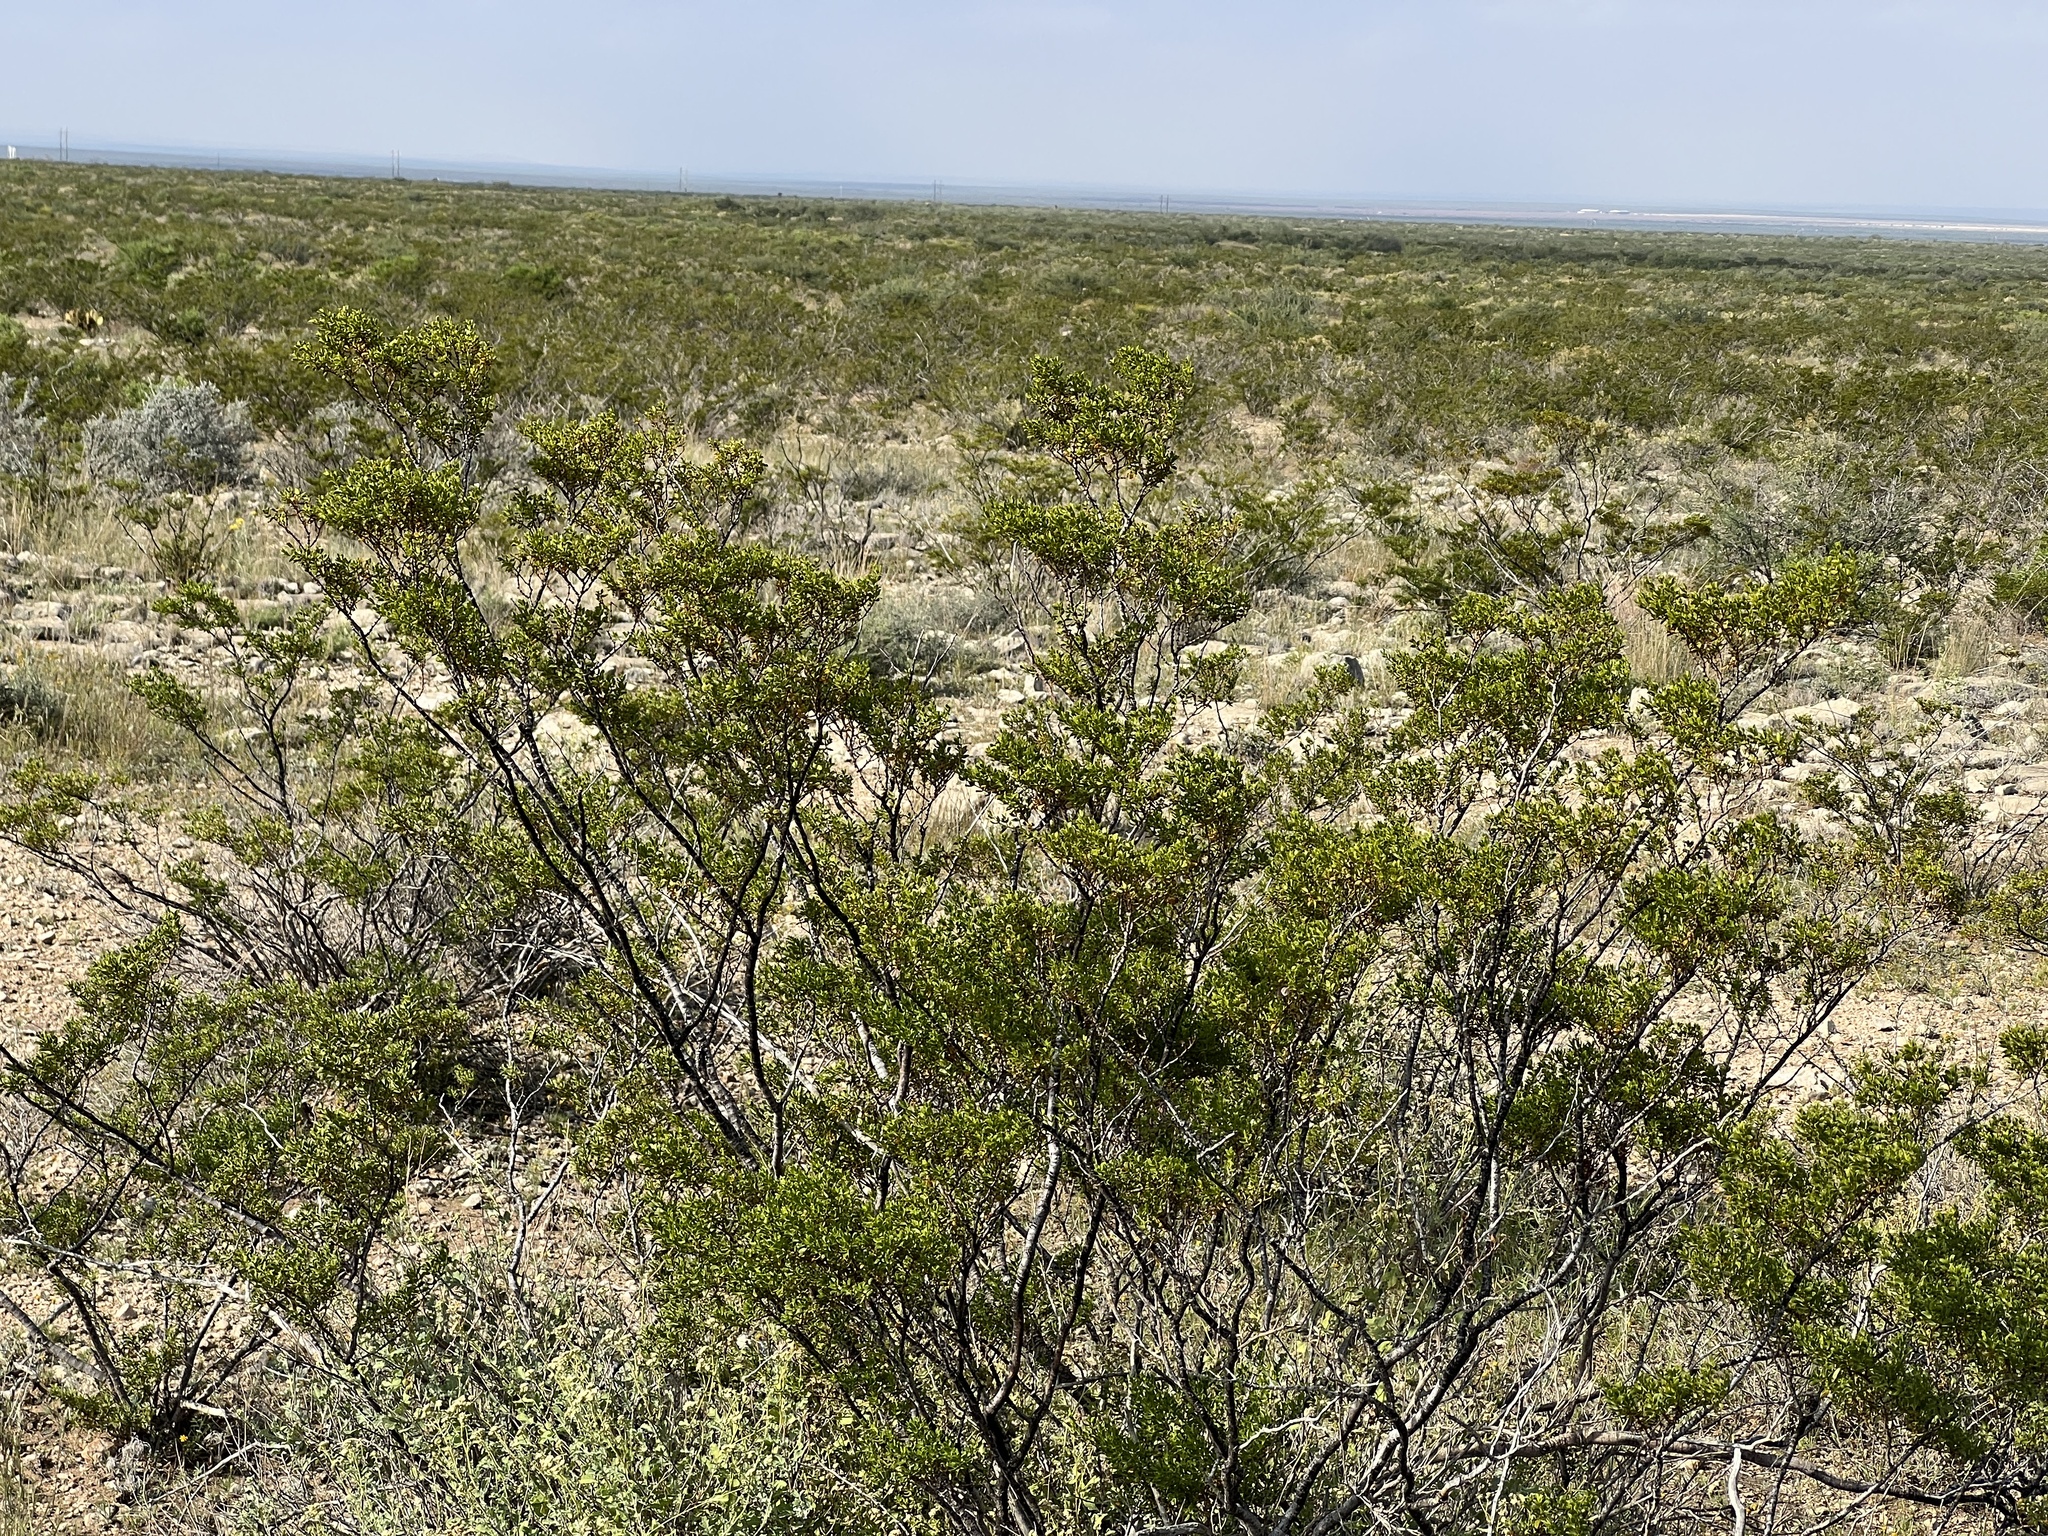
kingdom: Plantae
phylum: Tracheophyta
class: Magnoliopsida
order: Zygophyllales
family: Zygophyllaceae
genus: Larrea
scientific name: Larrea tridentata
